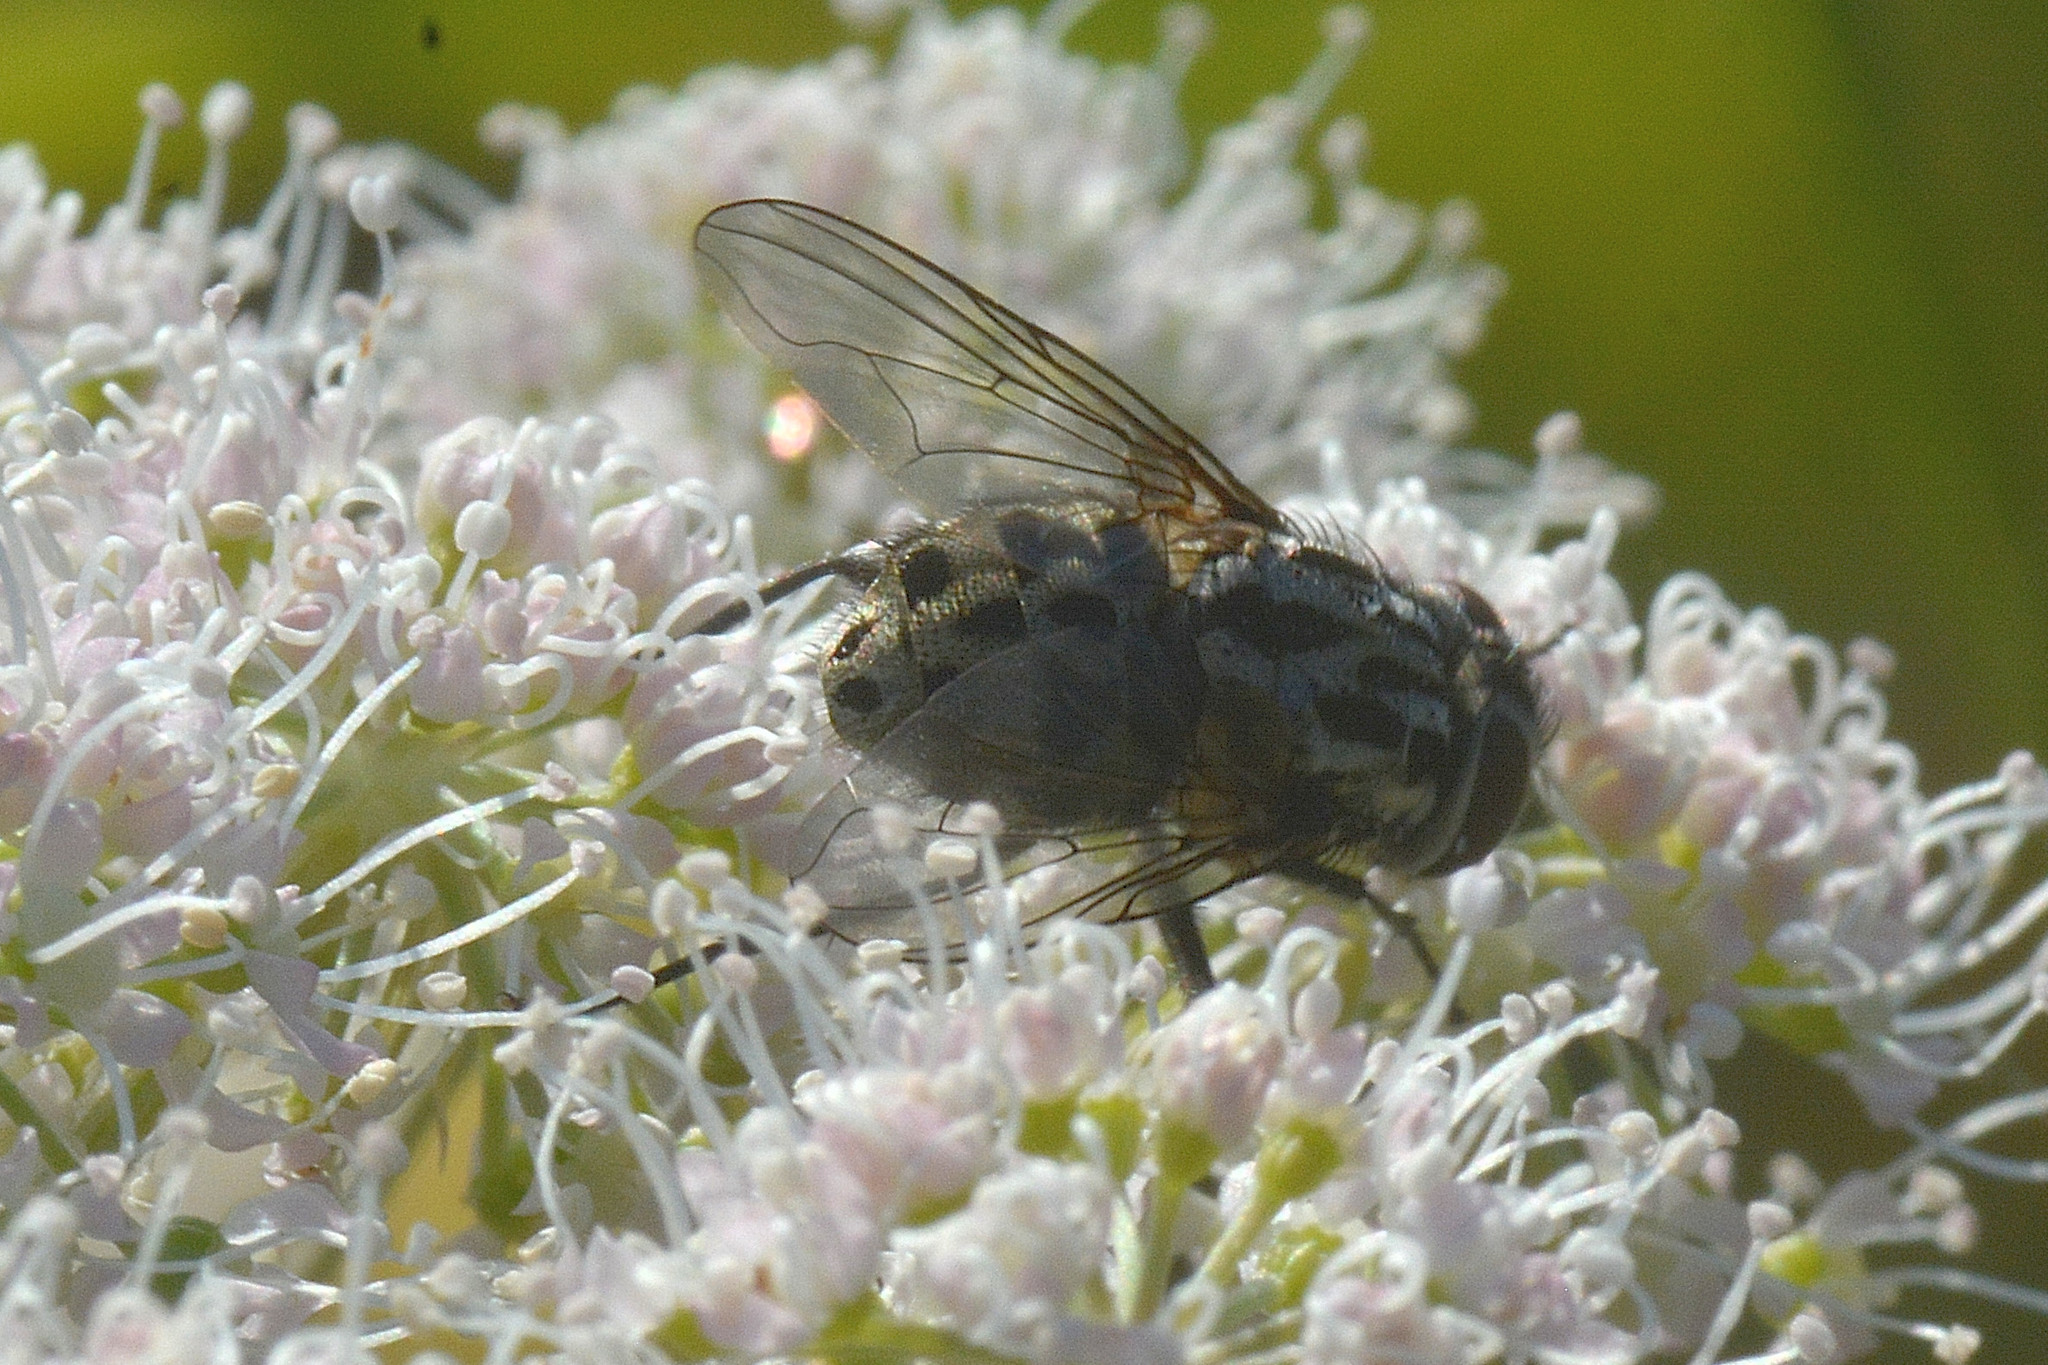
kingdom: Animalia
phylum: Arthropoda
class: Insecta
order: Diptera
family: Muscidae
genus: Graphomya
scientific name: Graphomya maculata
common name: Muscid fly
